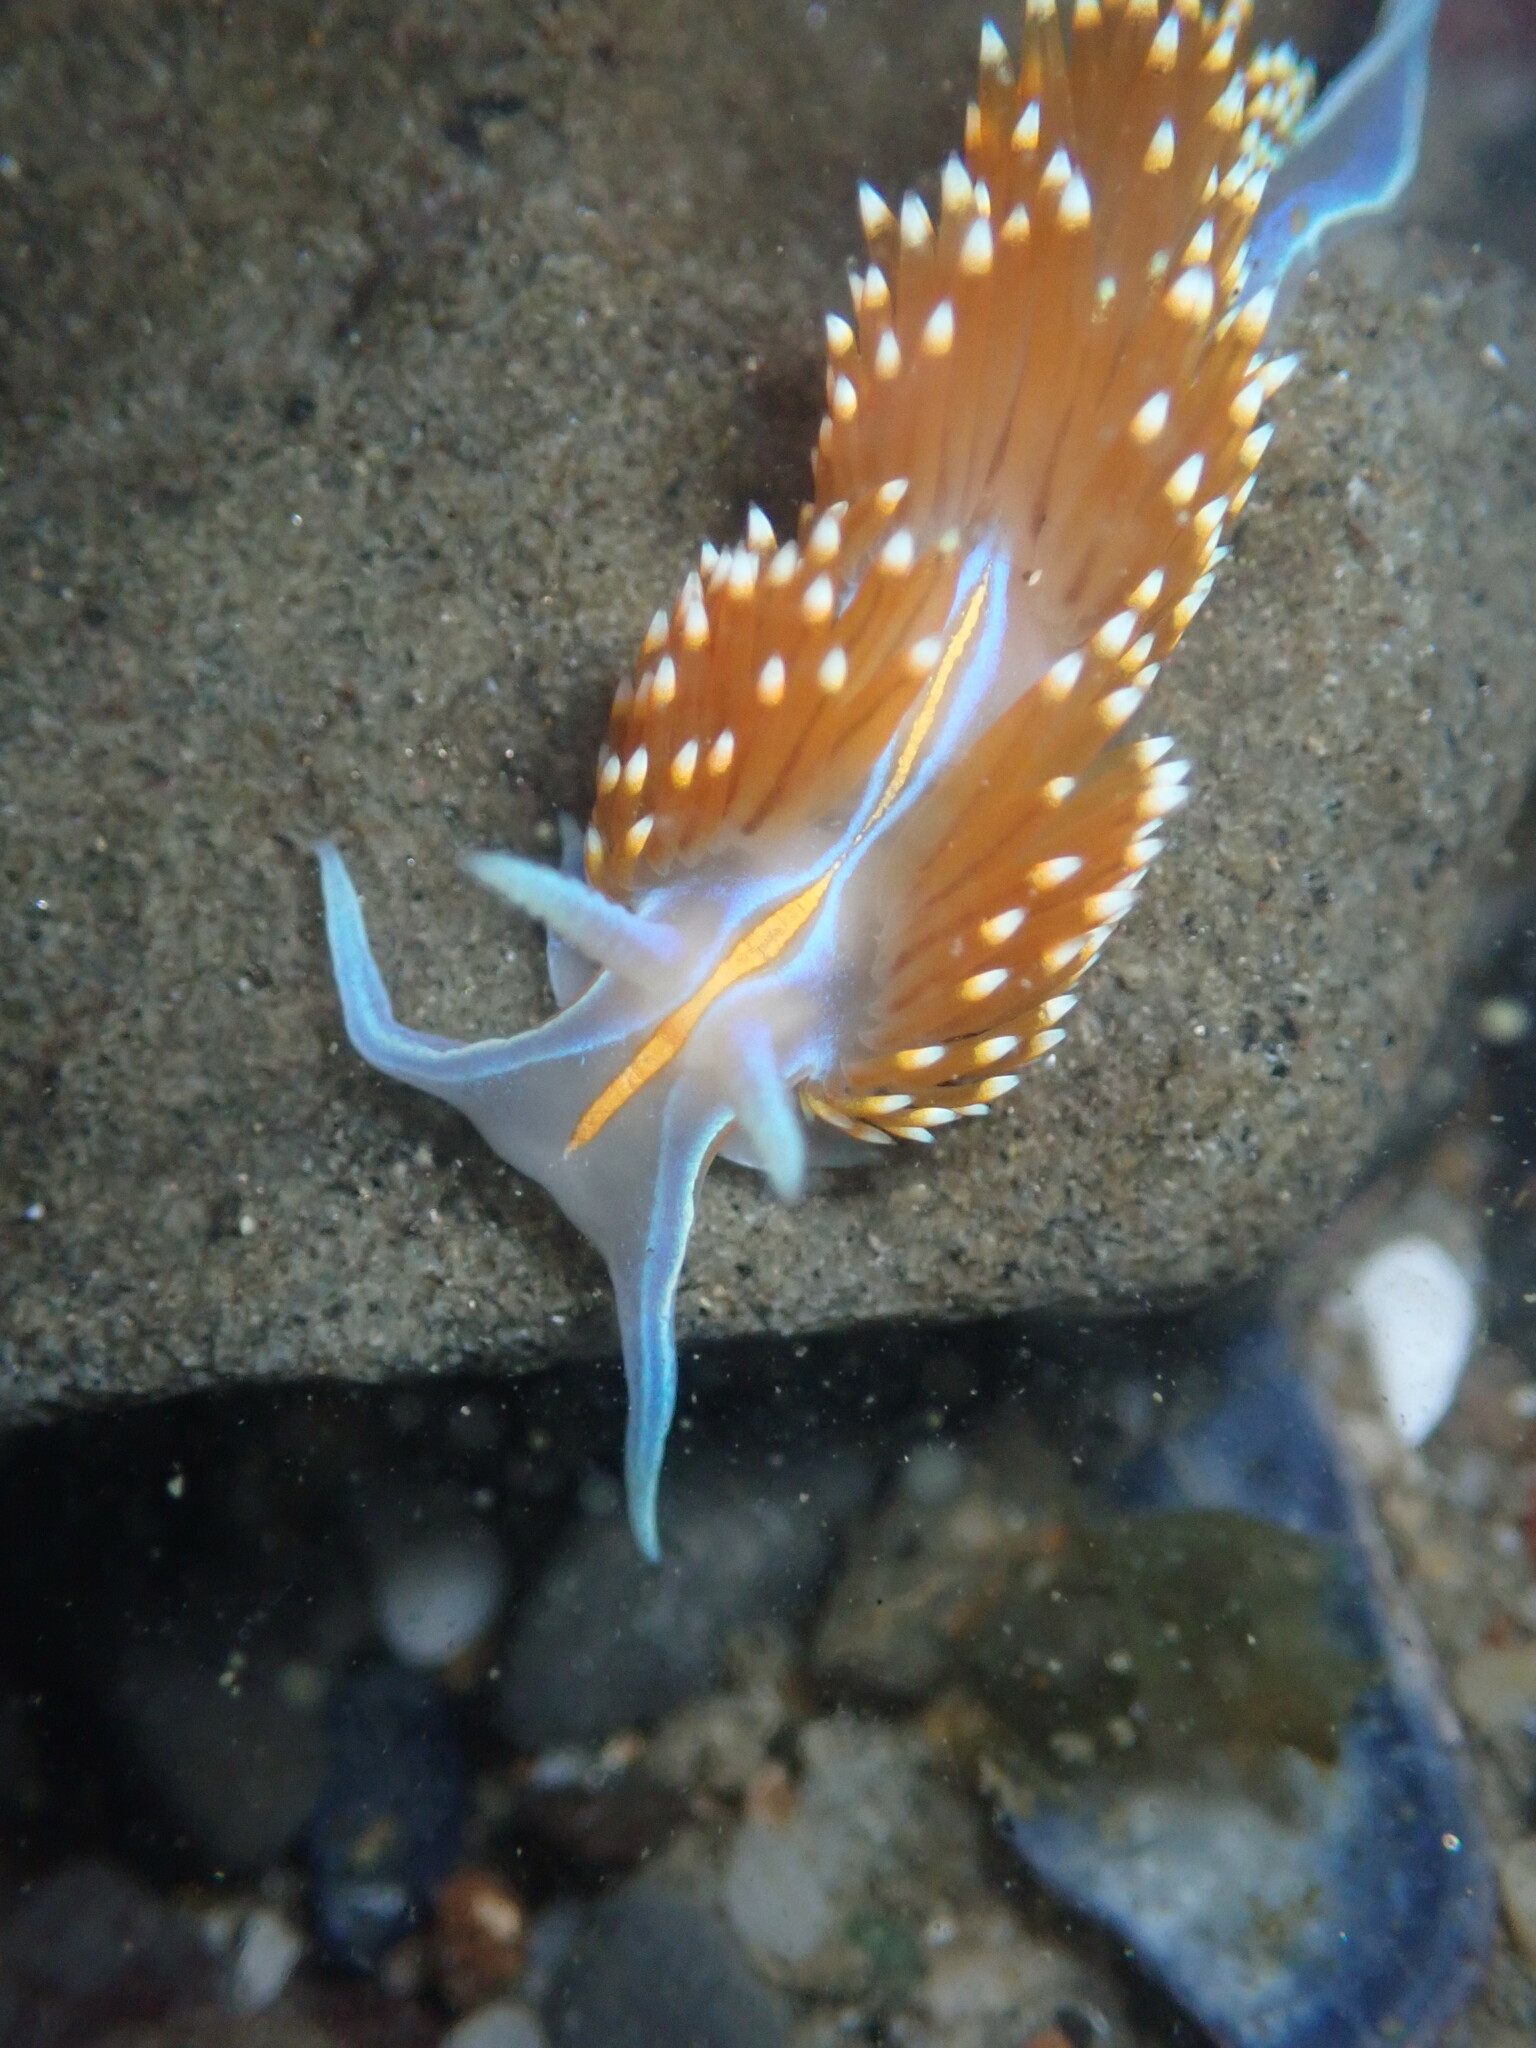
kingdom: Animalia
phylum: Mollusca
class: Gastropoda
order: Nudibranchia
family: Myrrhinidae
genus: Hermissenda
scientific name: Hermissenda opalescens
